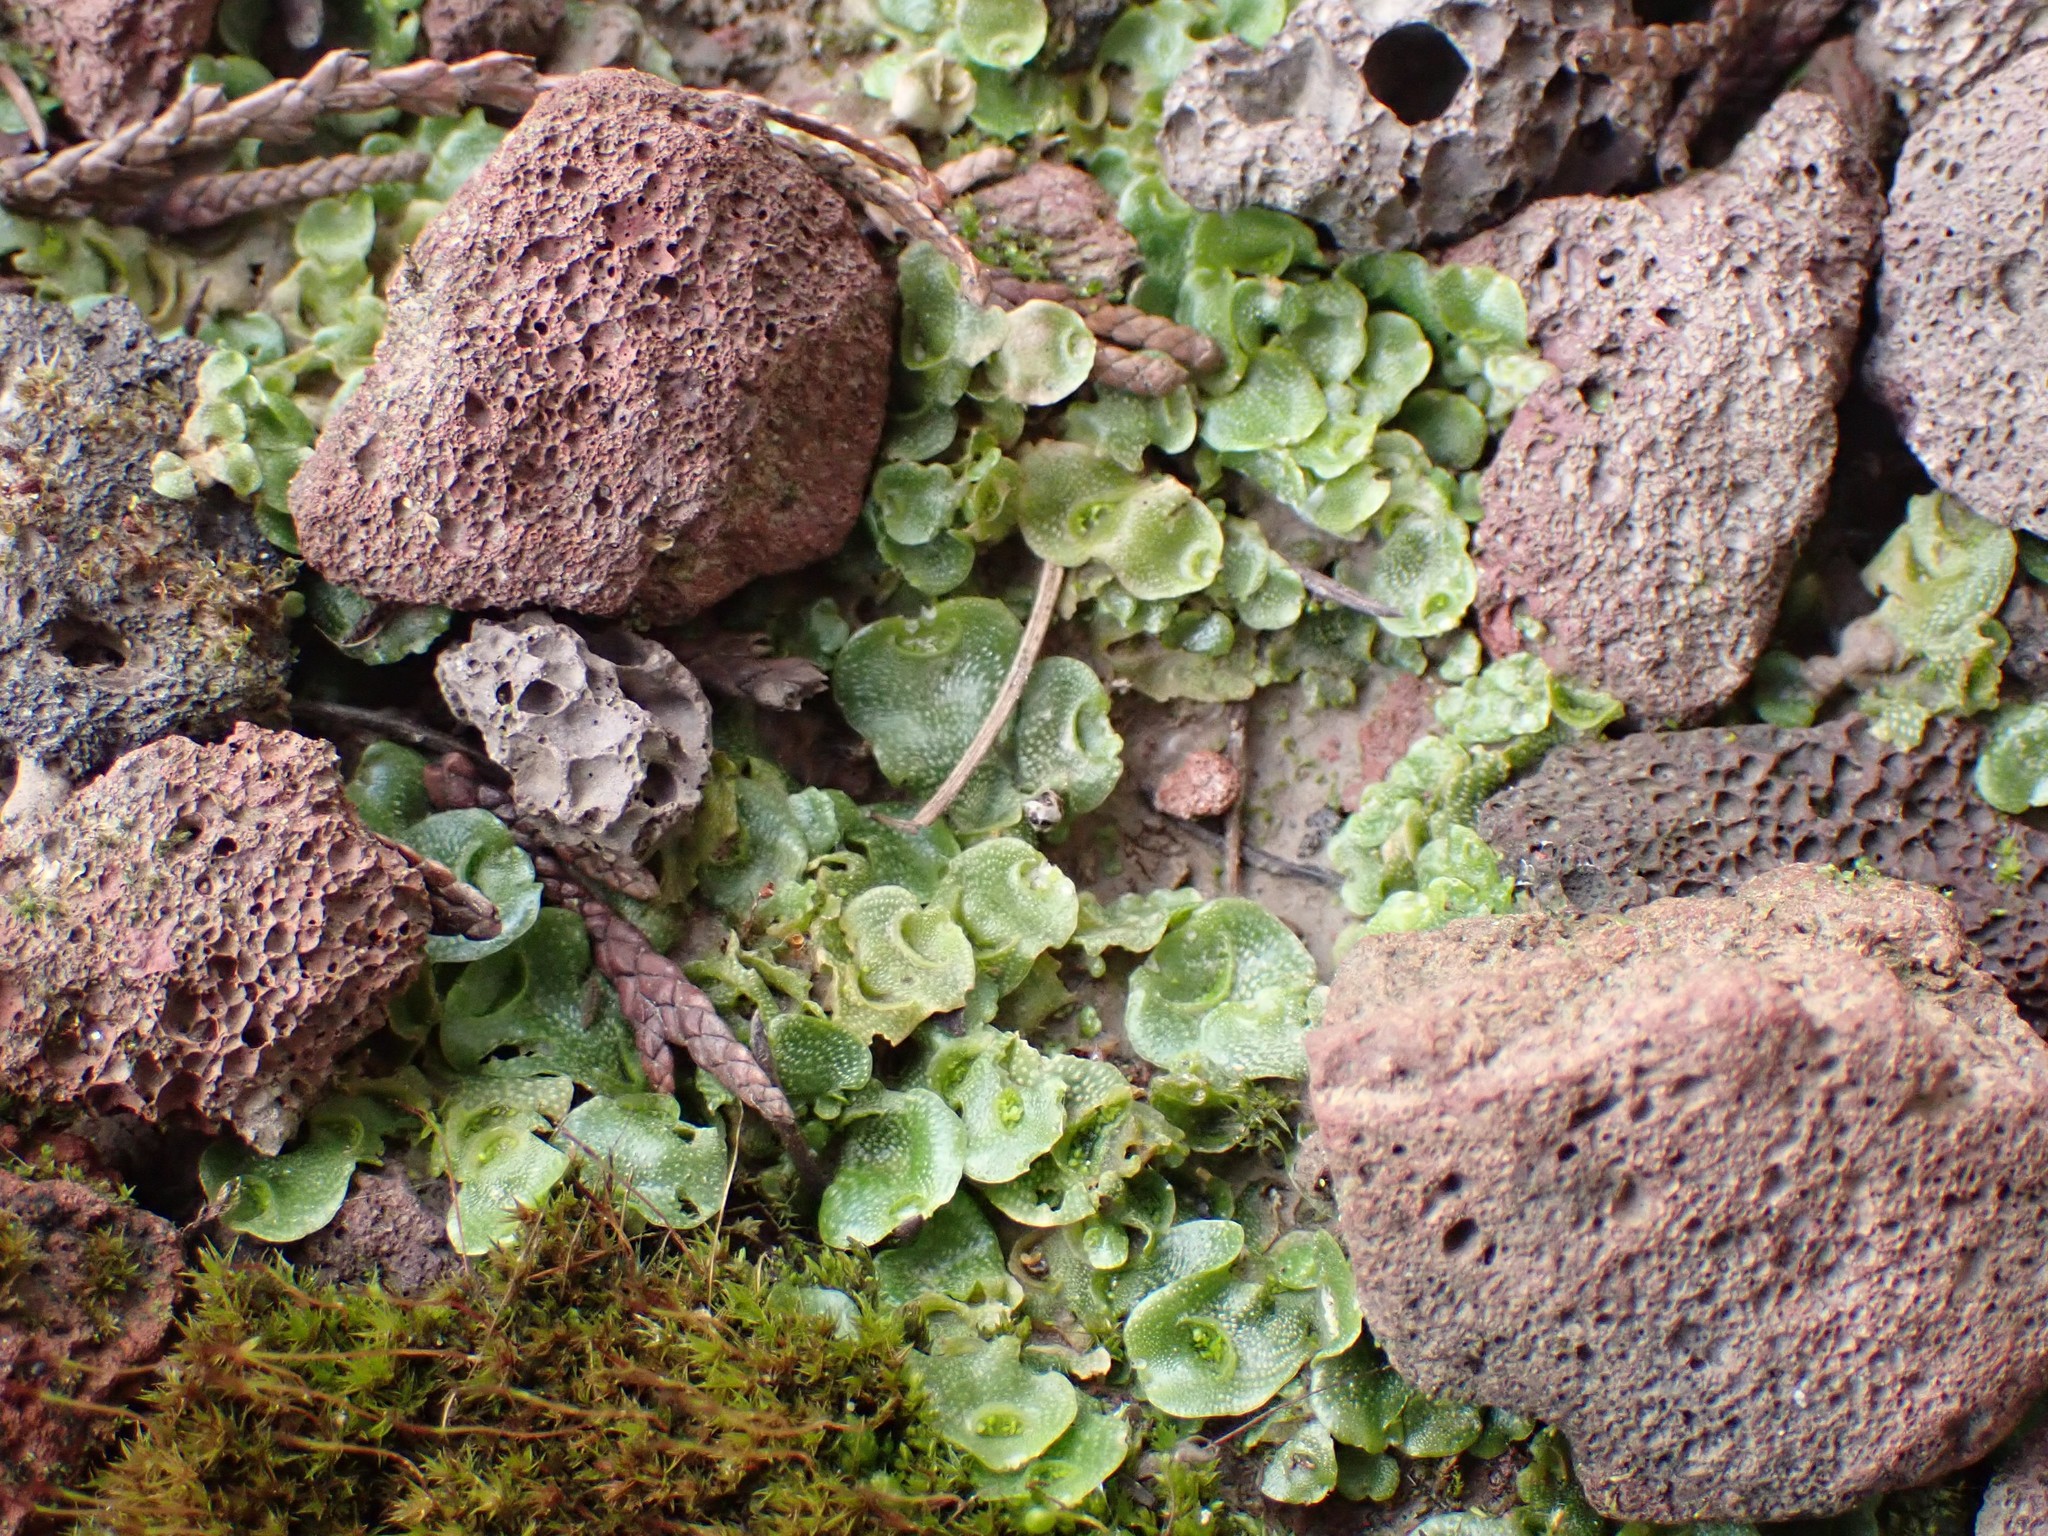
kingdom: Plantae
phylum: Marchantiophyta
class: Marchantiopsida
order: Lunulariales
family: Lunulariaceae
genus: Lunularia
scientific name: Lunularia cruciata
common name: Crescent-cup liverwort
